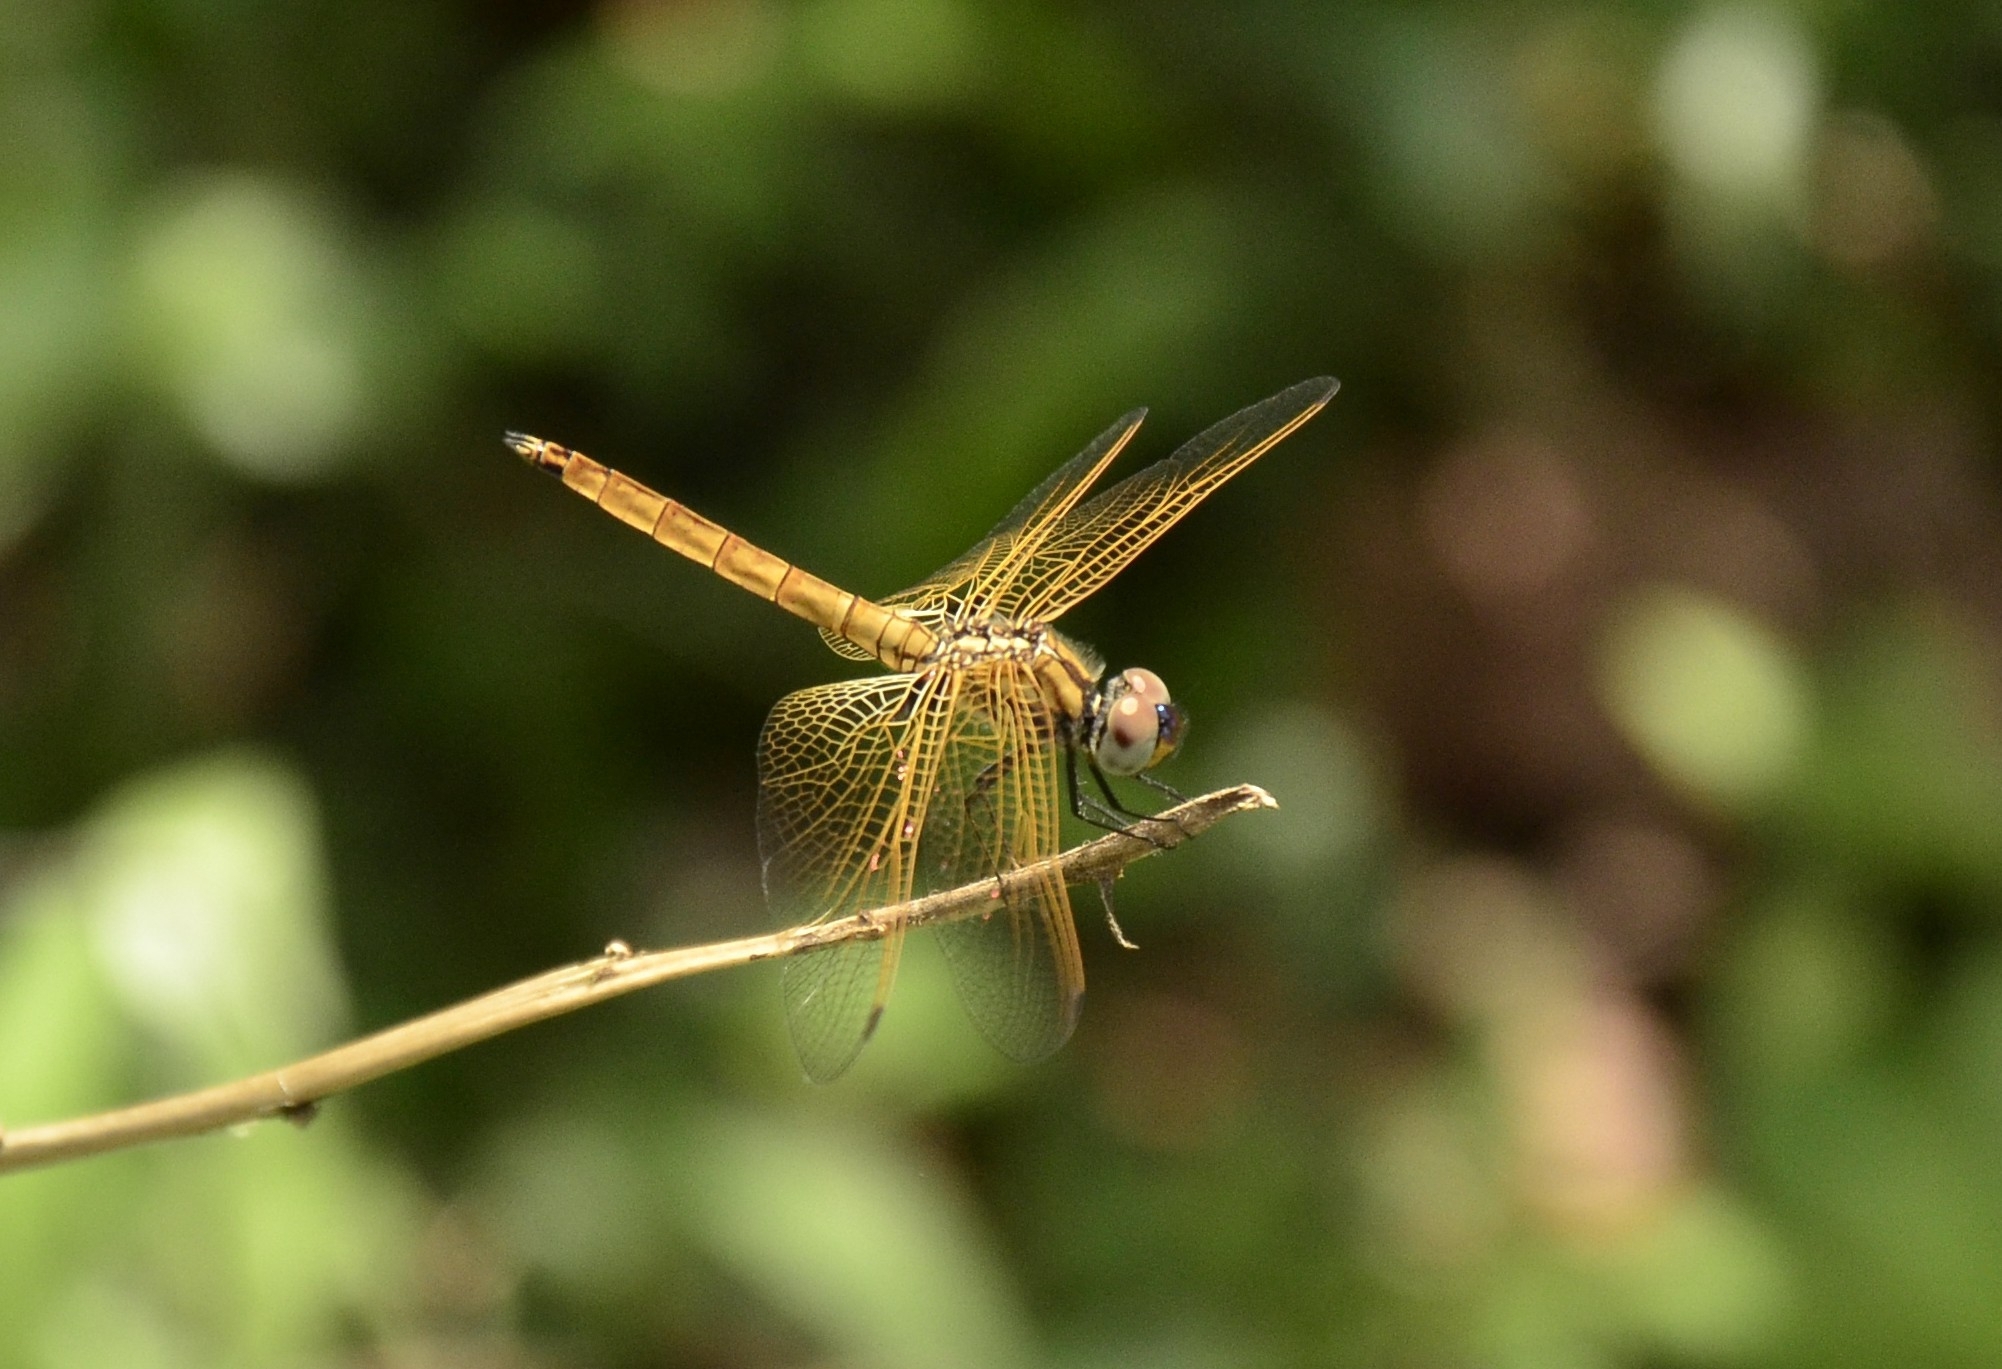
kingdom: Animalia
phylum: Arthropoda
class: Insecta
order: Odonata
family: Libellulidae
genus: Trithemis
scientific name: Trithemis aurora
